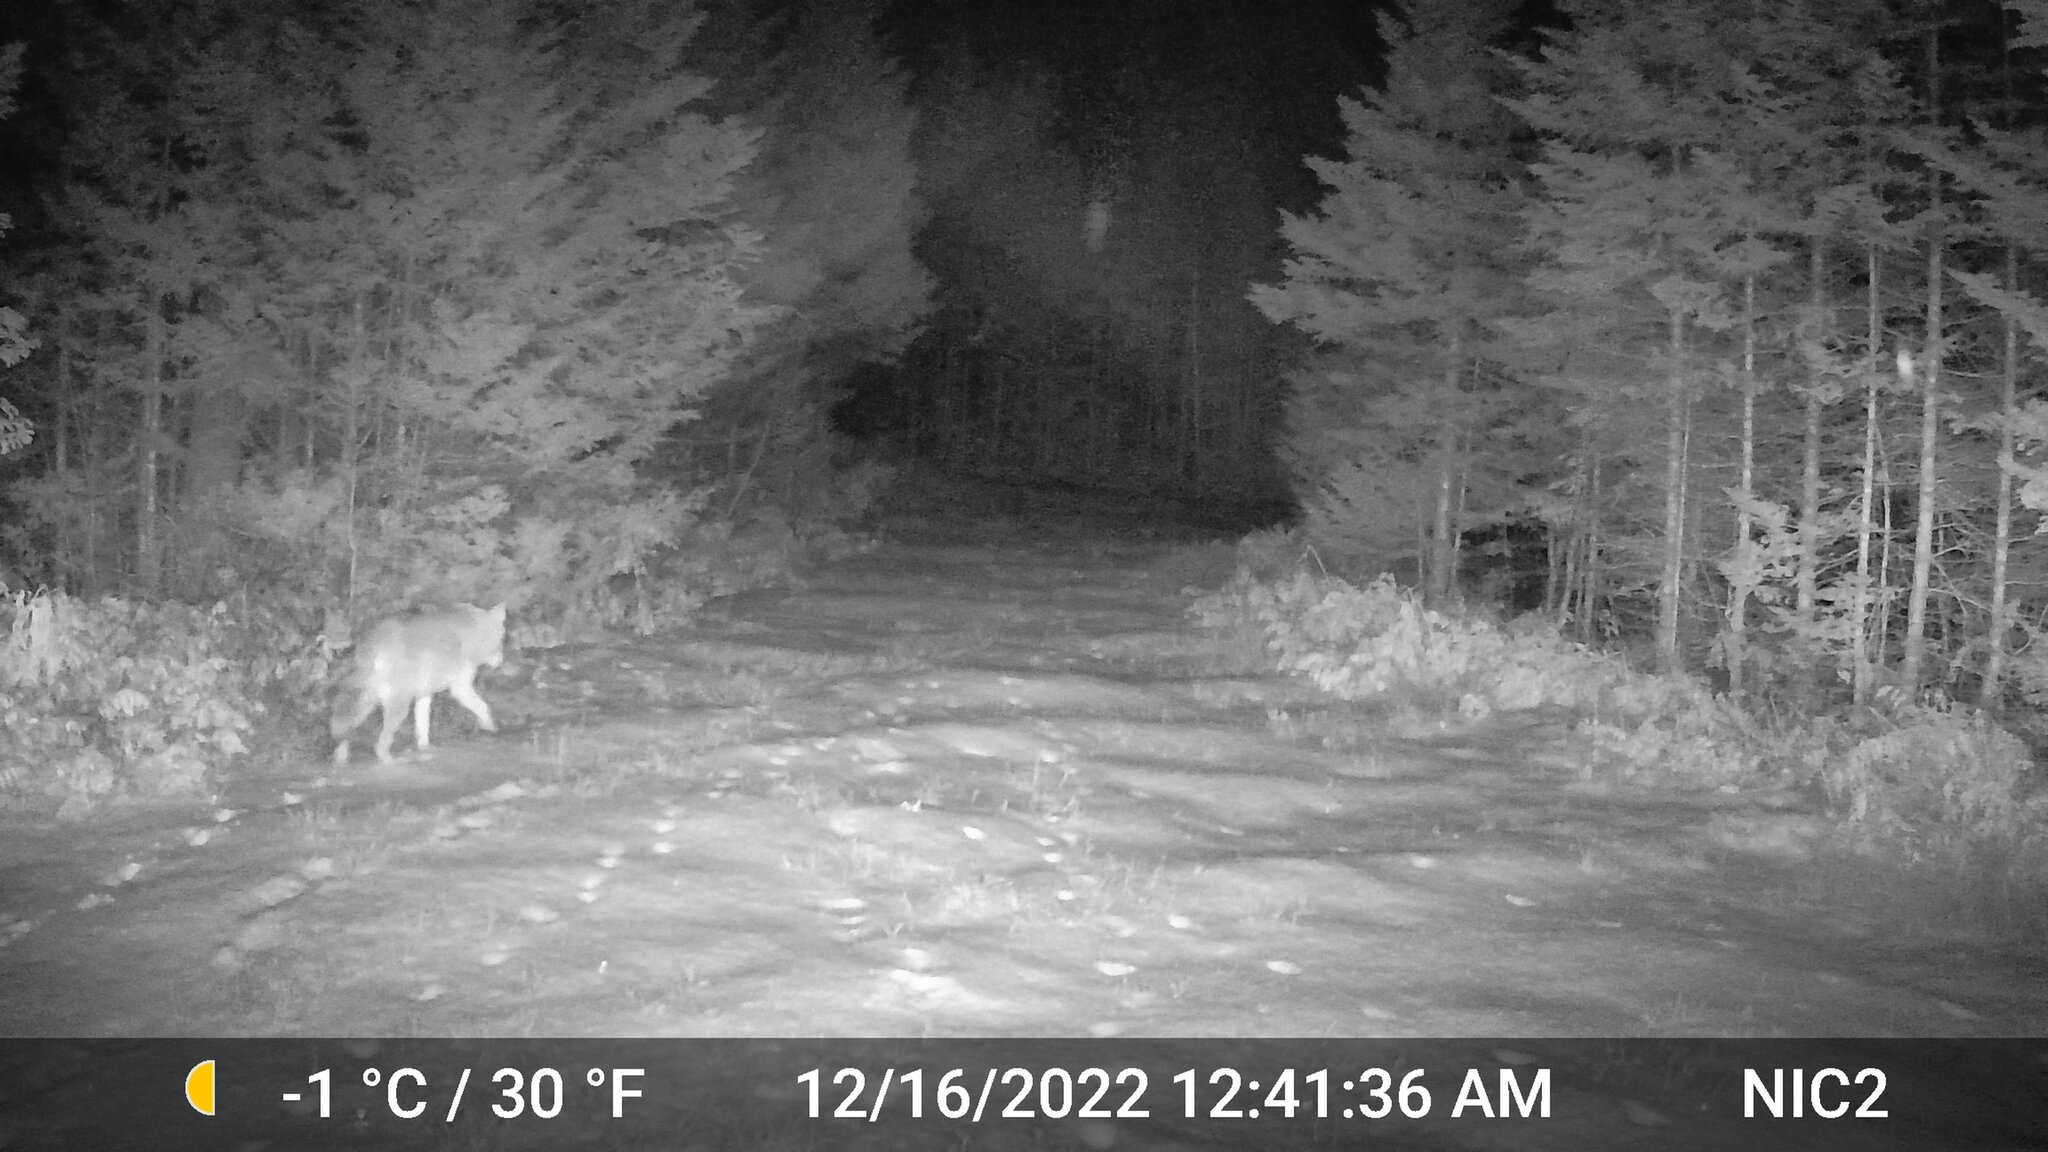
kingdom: Animalia
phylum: Chordata
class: Mammalia
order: Carnivora
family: Canidae
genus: Canis
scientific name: Canis latrans
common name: Coyote
